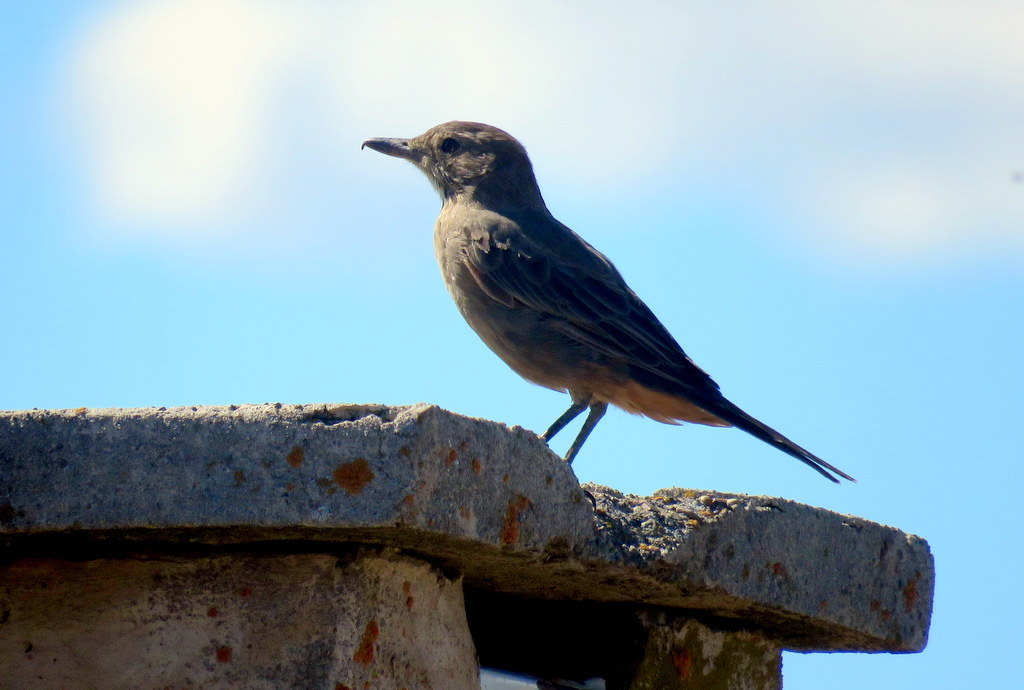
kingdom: Animalia
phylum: Chordata
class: Aves
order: Passeriformes
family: Tyrannidae
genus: Agriornis
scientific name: Agriornis lividus
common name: Great shrike-tyrant
